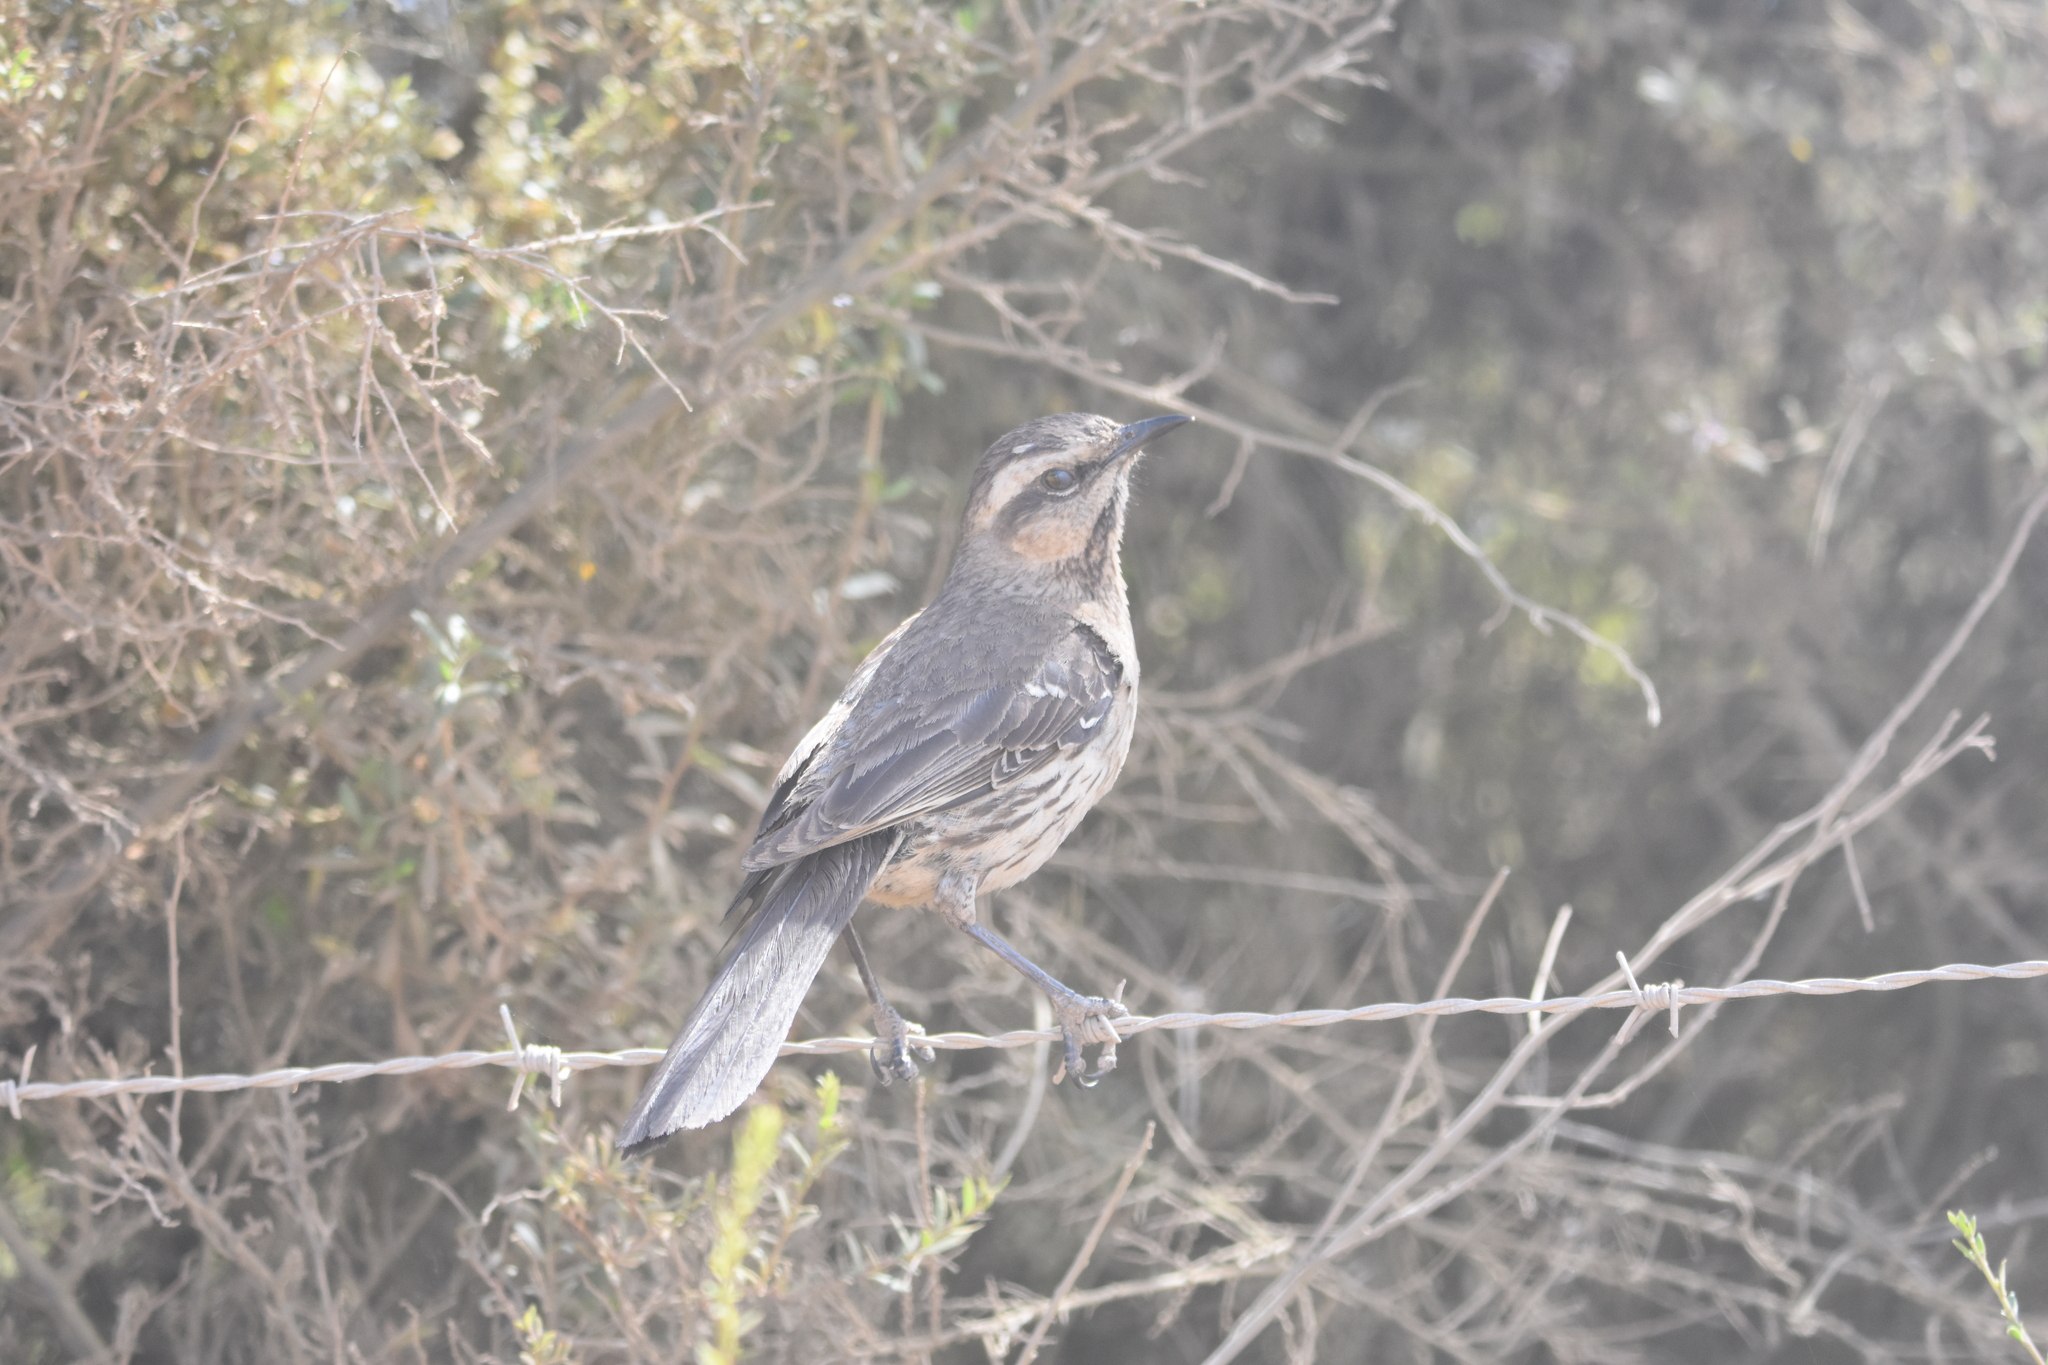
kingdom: Animalia
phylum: Chordata
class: Aves
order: Passeriformes
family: Mimidae
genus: Mimus
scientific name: Mimus thenca
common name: Chilean mockingbird
